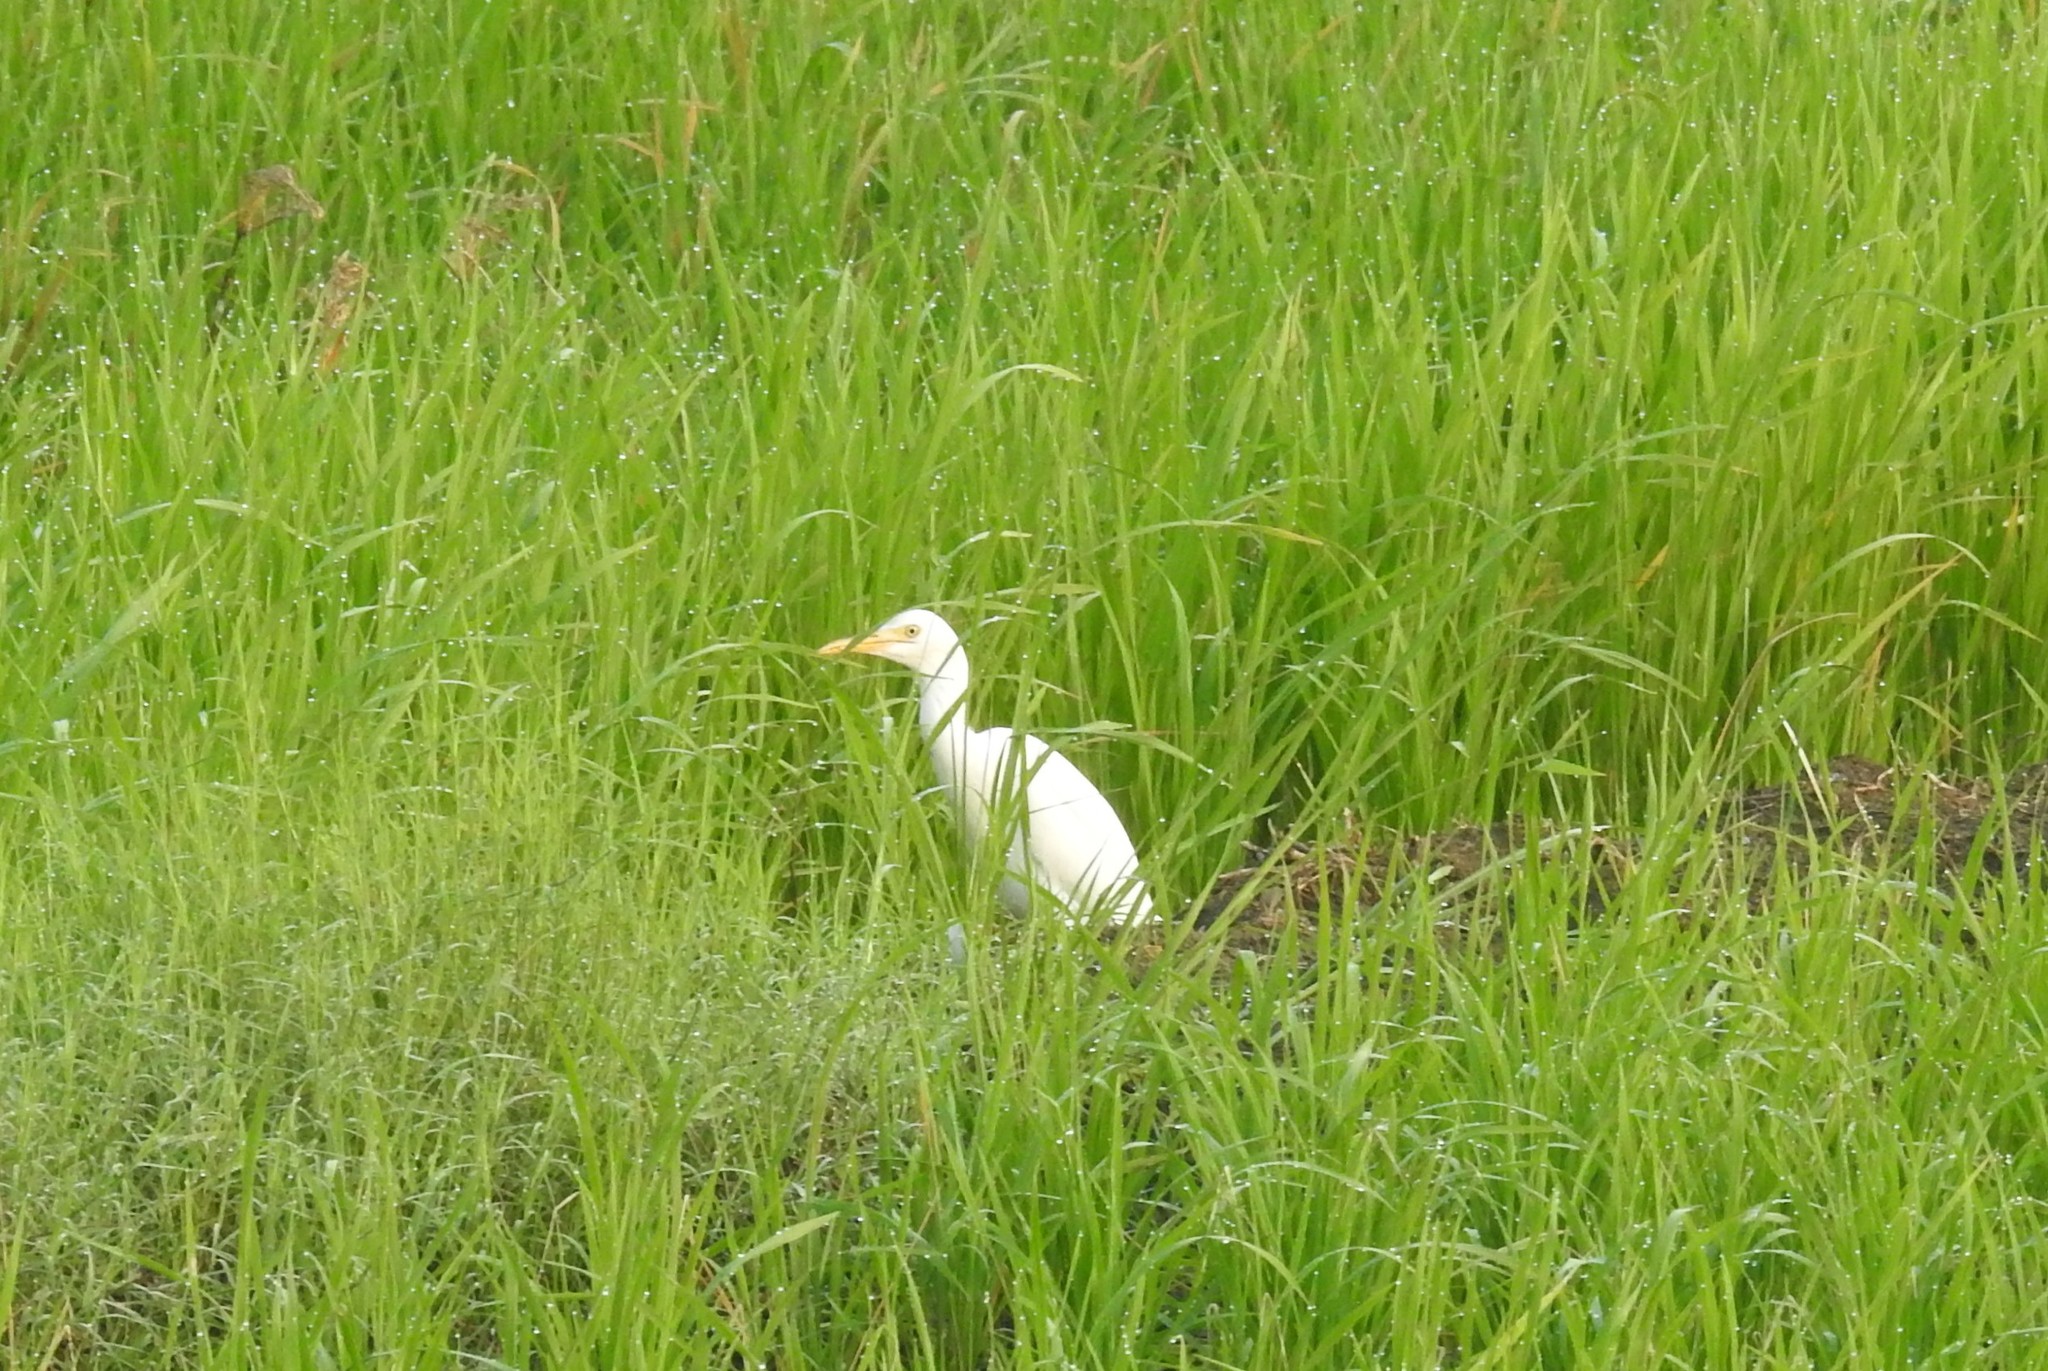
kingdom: Animalia
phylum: Chordata
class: Aves
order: Pelecaniformes
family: Ardeidae
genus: Bubulcus
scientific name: Bubulcus coromandus
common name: Eastern cattle egret
